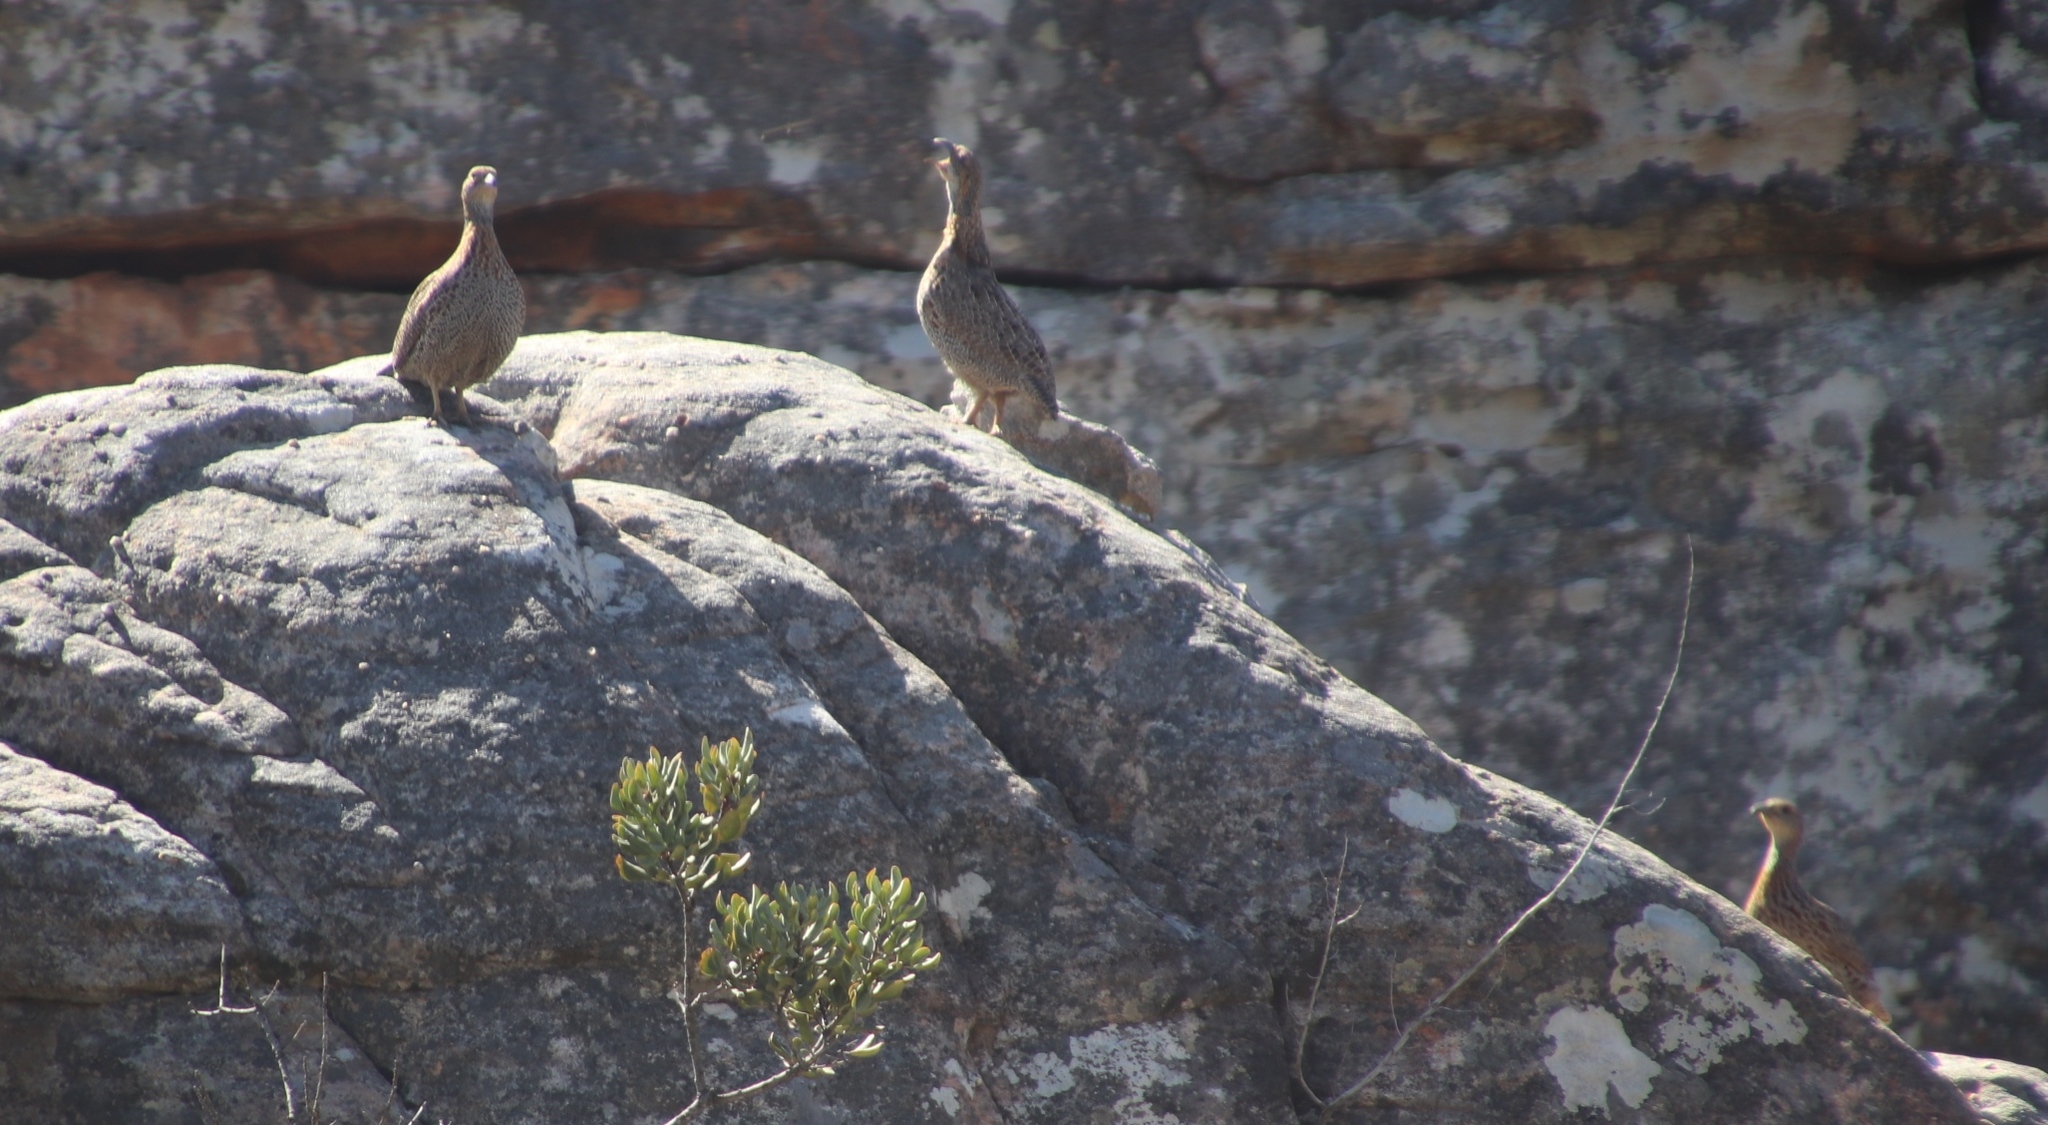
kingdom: Animalia
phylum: Chordata
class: Aves
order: Galliformes
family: Phasianidae
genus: Scleroptila
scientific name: Scleroptila afra
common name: Grey-winged francolin
